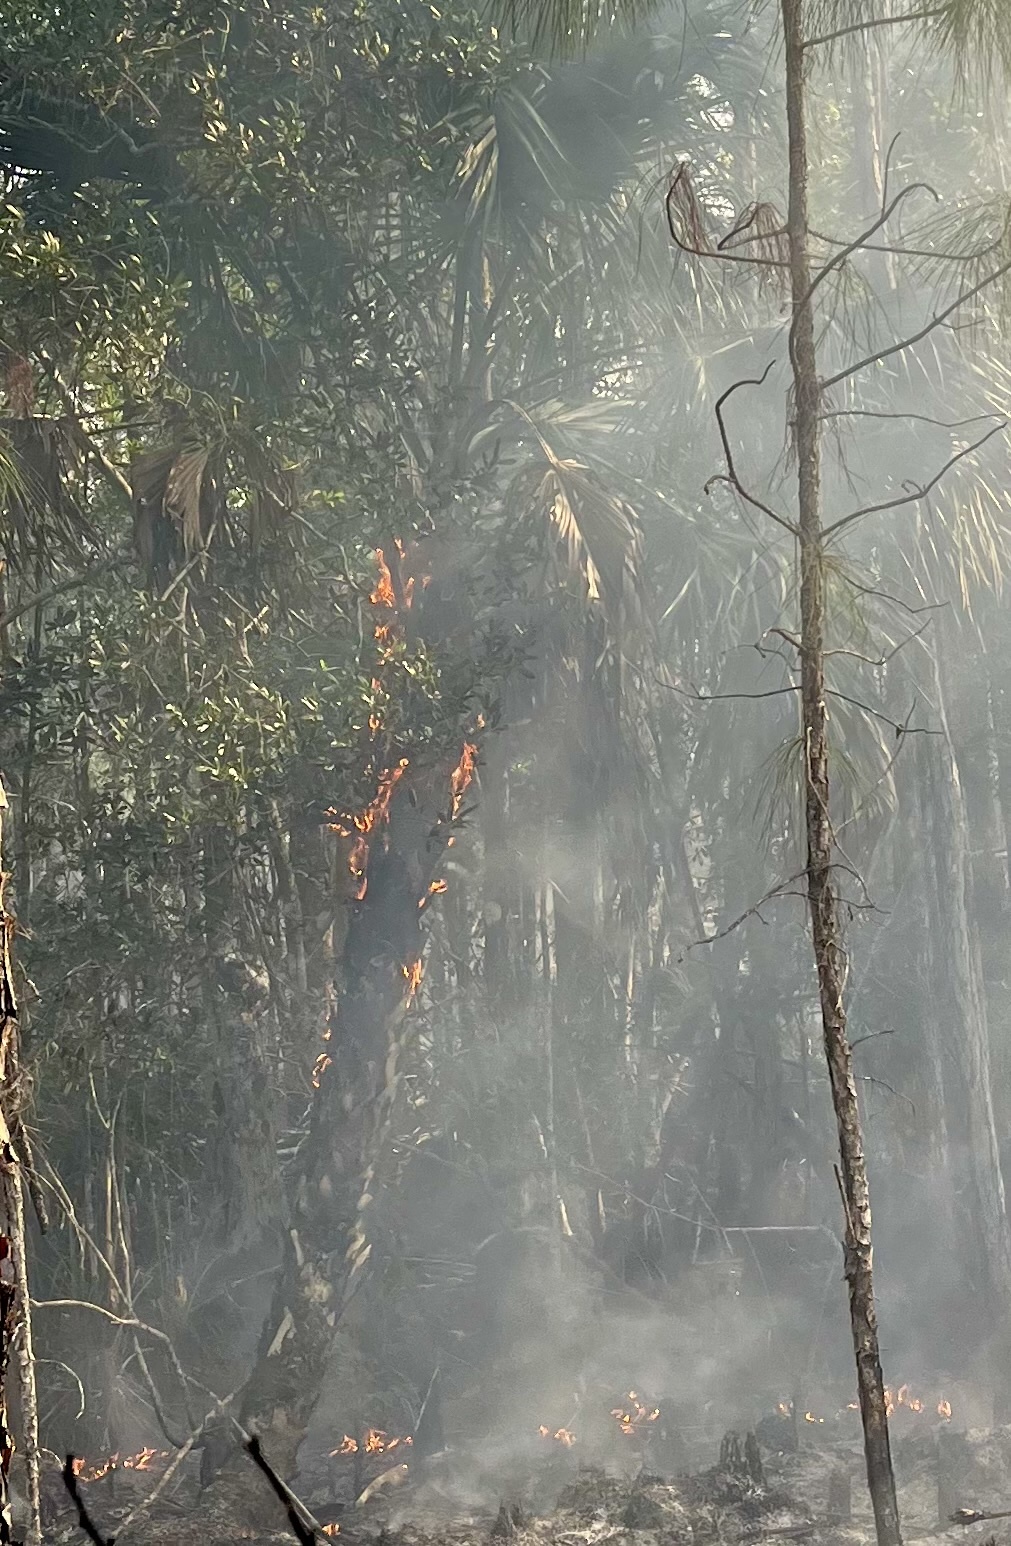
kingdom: Plantae
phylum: Tracheophyta
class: Liliopsida
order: Arecales
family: Arecaceae
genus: Sabal
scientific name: Sabal palmetto
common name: Blue palmetto
